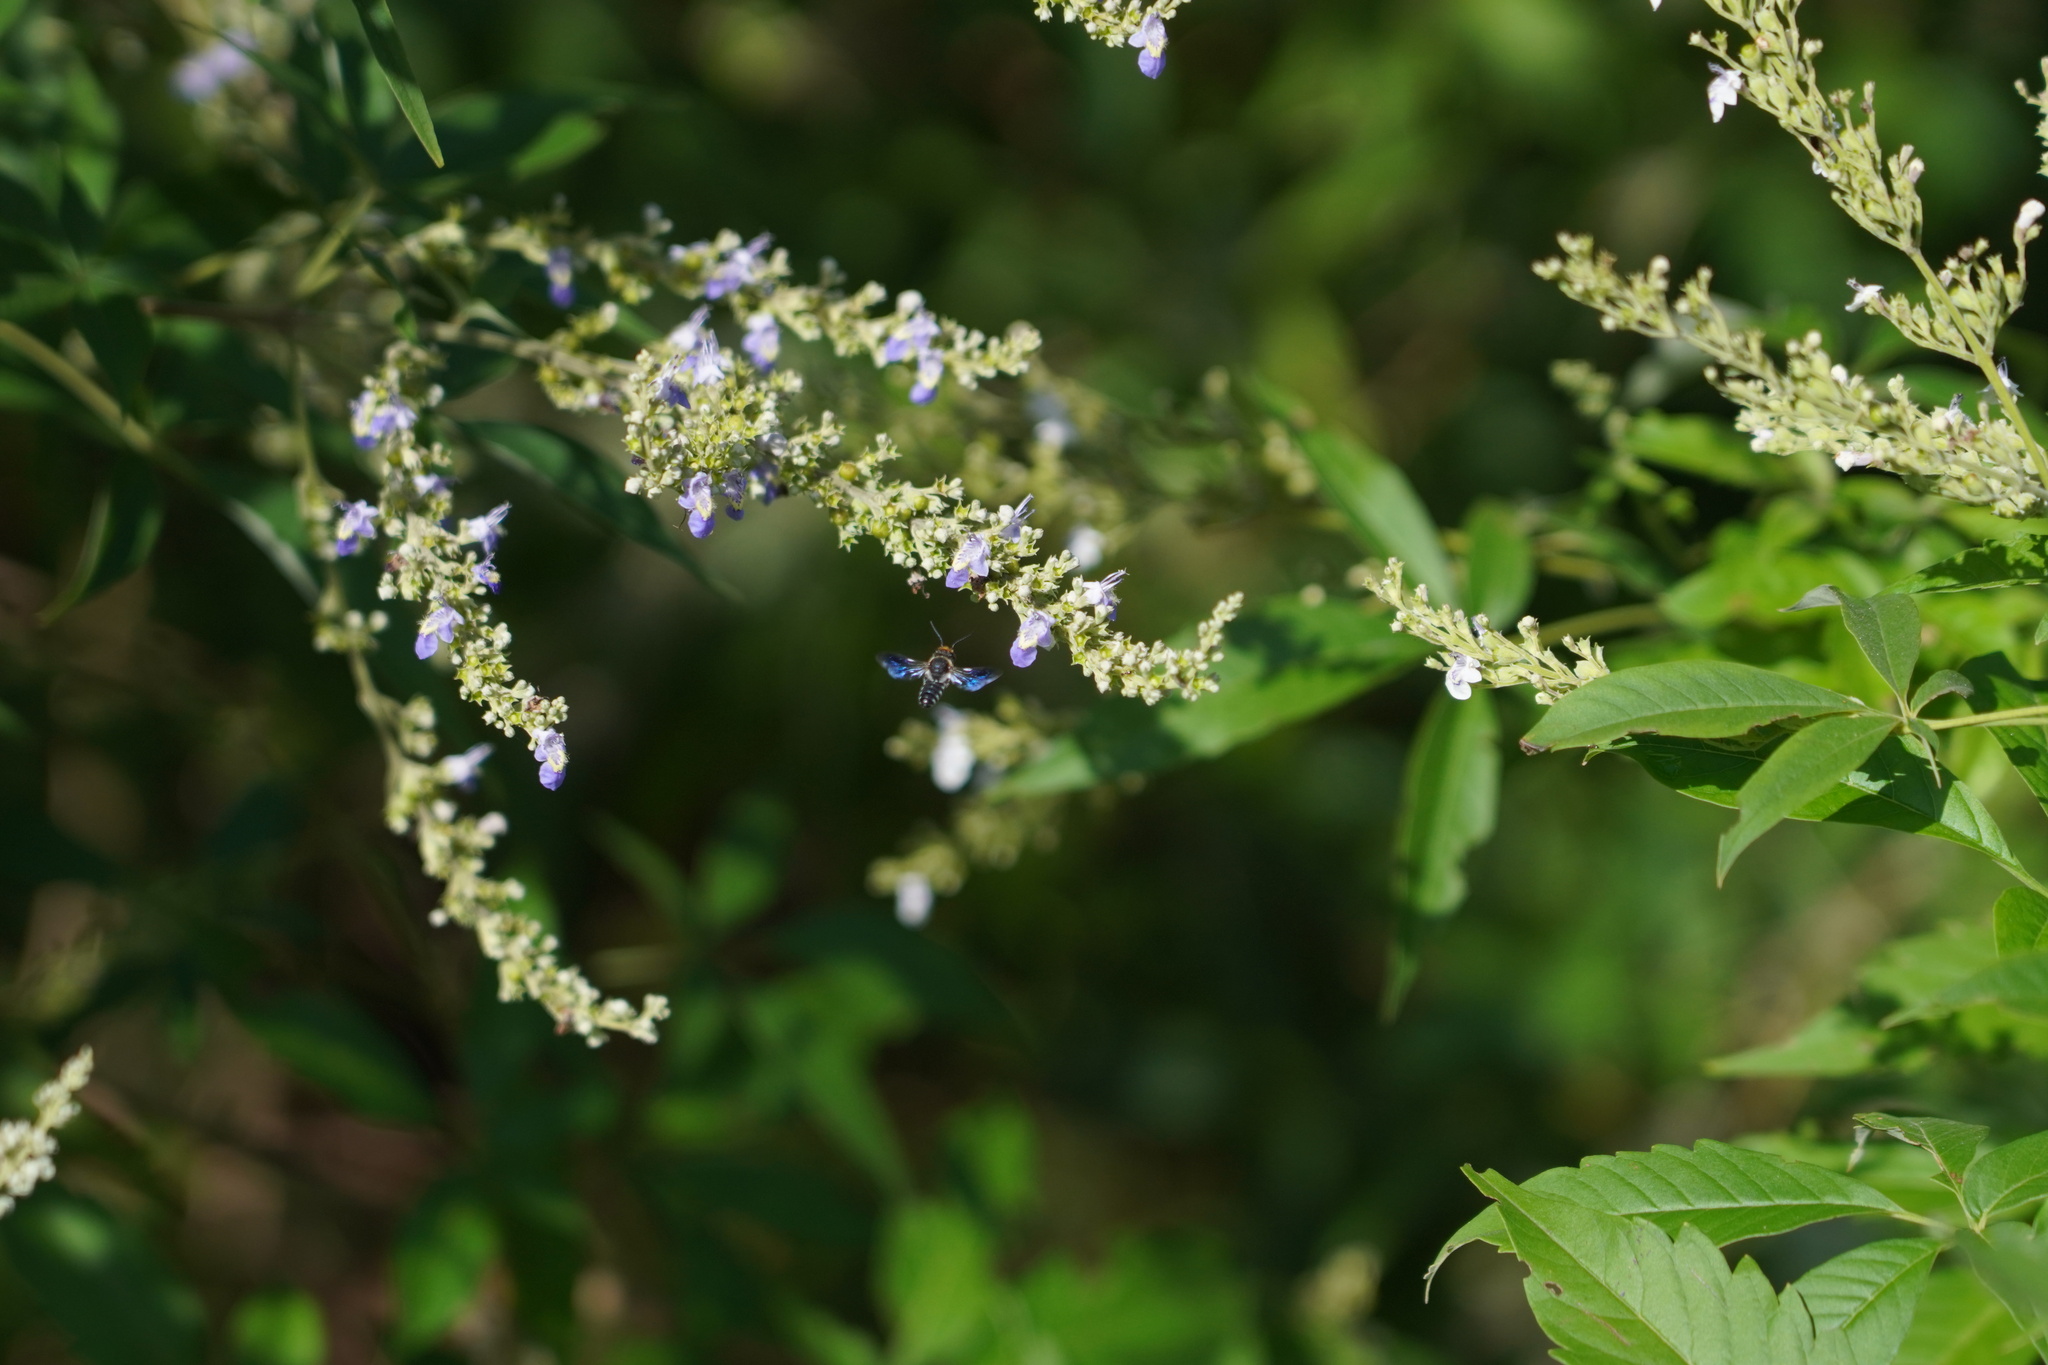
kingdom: Animalia
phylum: Arthropoda
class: Insecta
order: Hymenoptera
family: Megachilidae
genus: Megachile
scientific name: Megachile faceta
